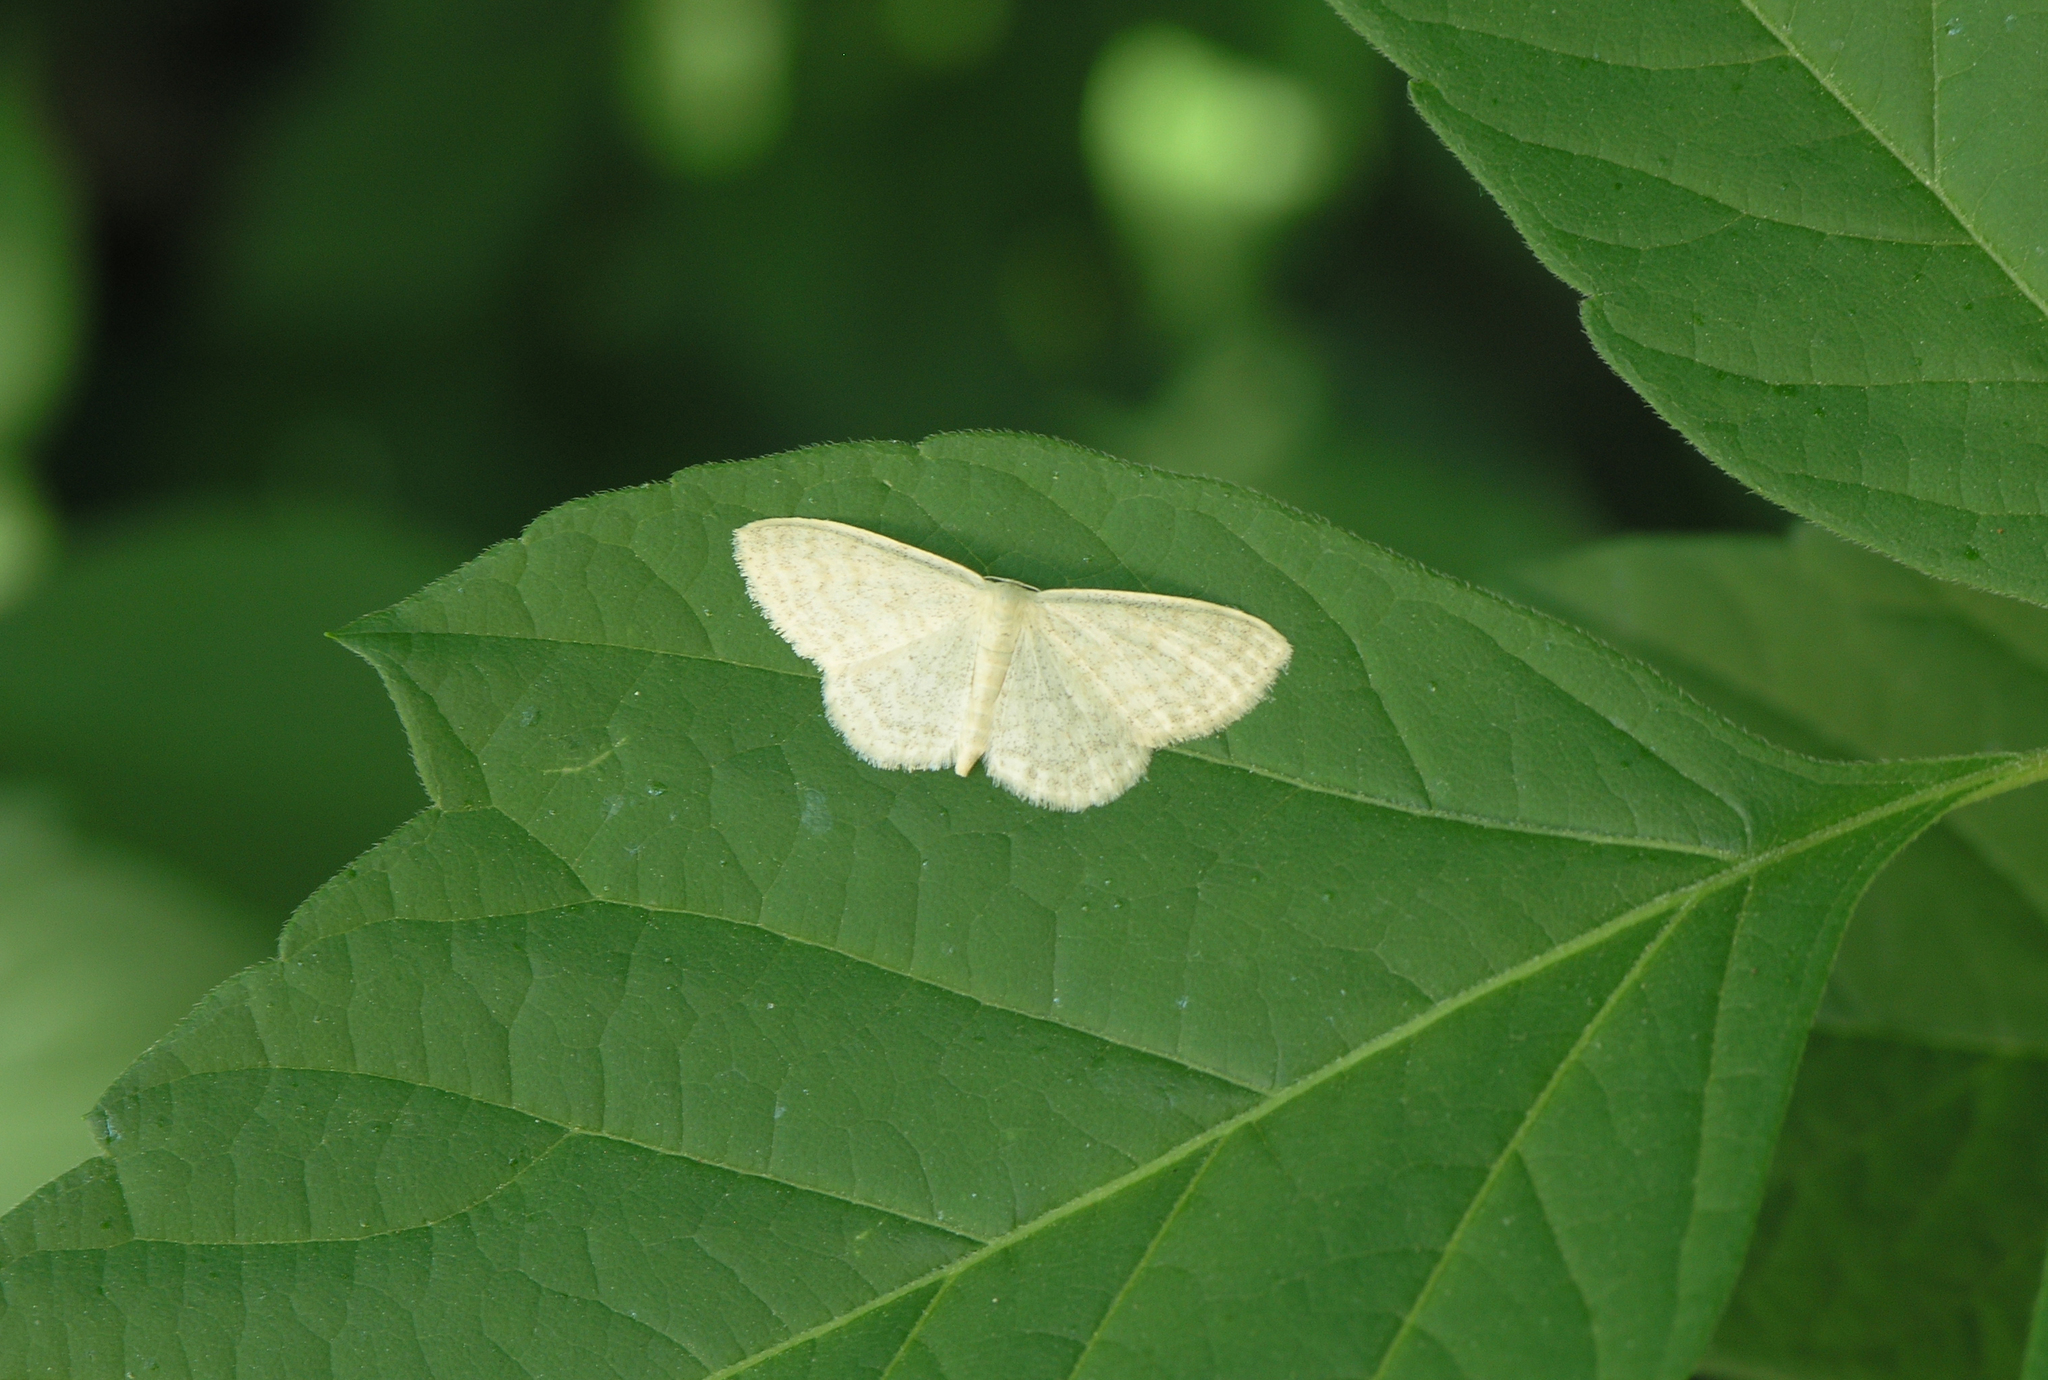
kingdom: Animalia
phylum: Arthropoda
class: Insecta
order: Lepidoptera
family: Geometridae
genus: Scopula
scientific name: Scopula floslactata
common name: Cream wave
